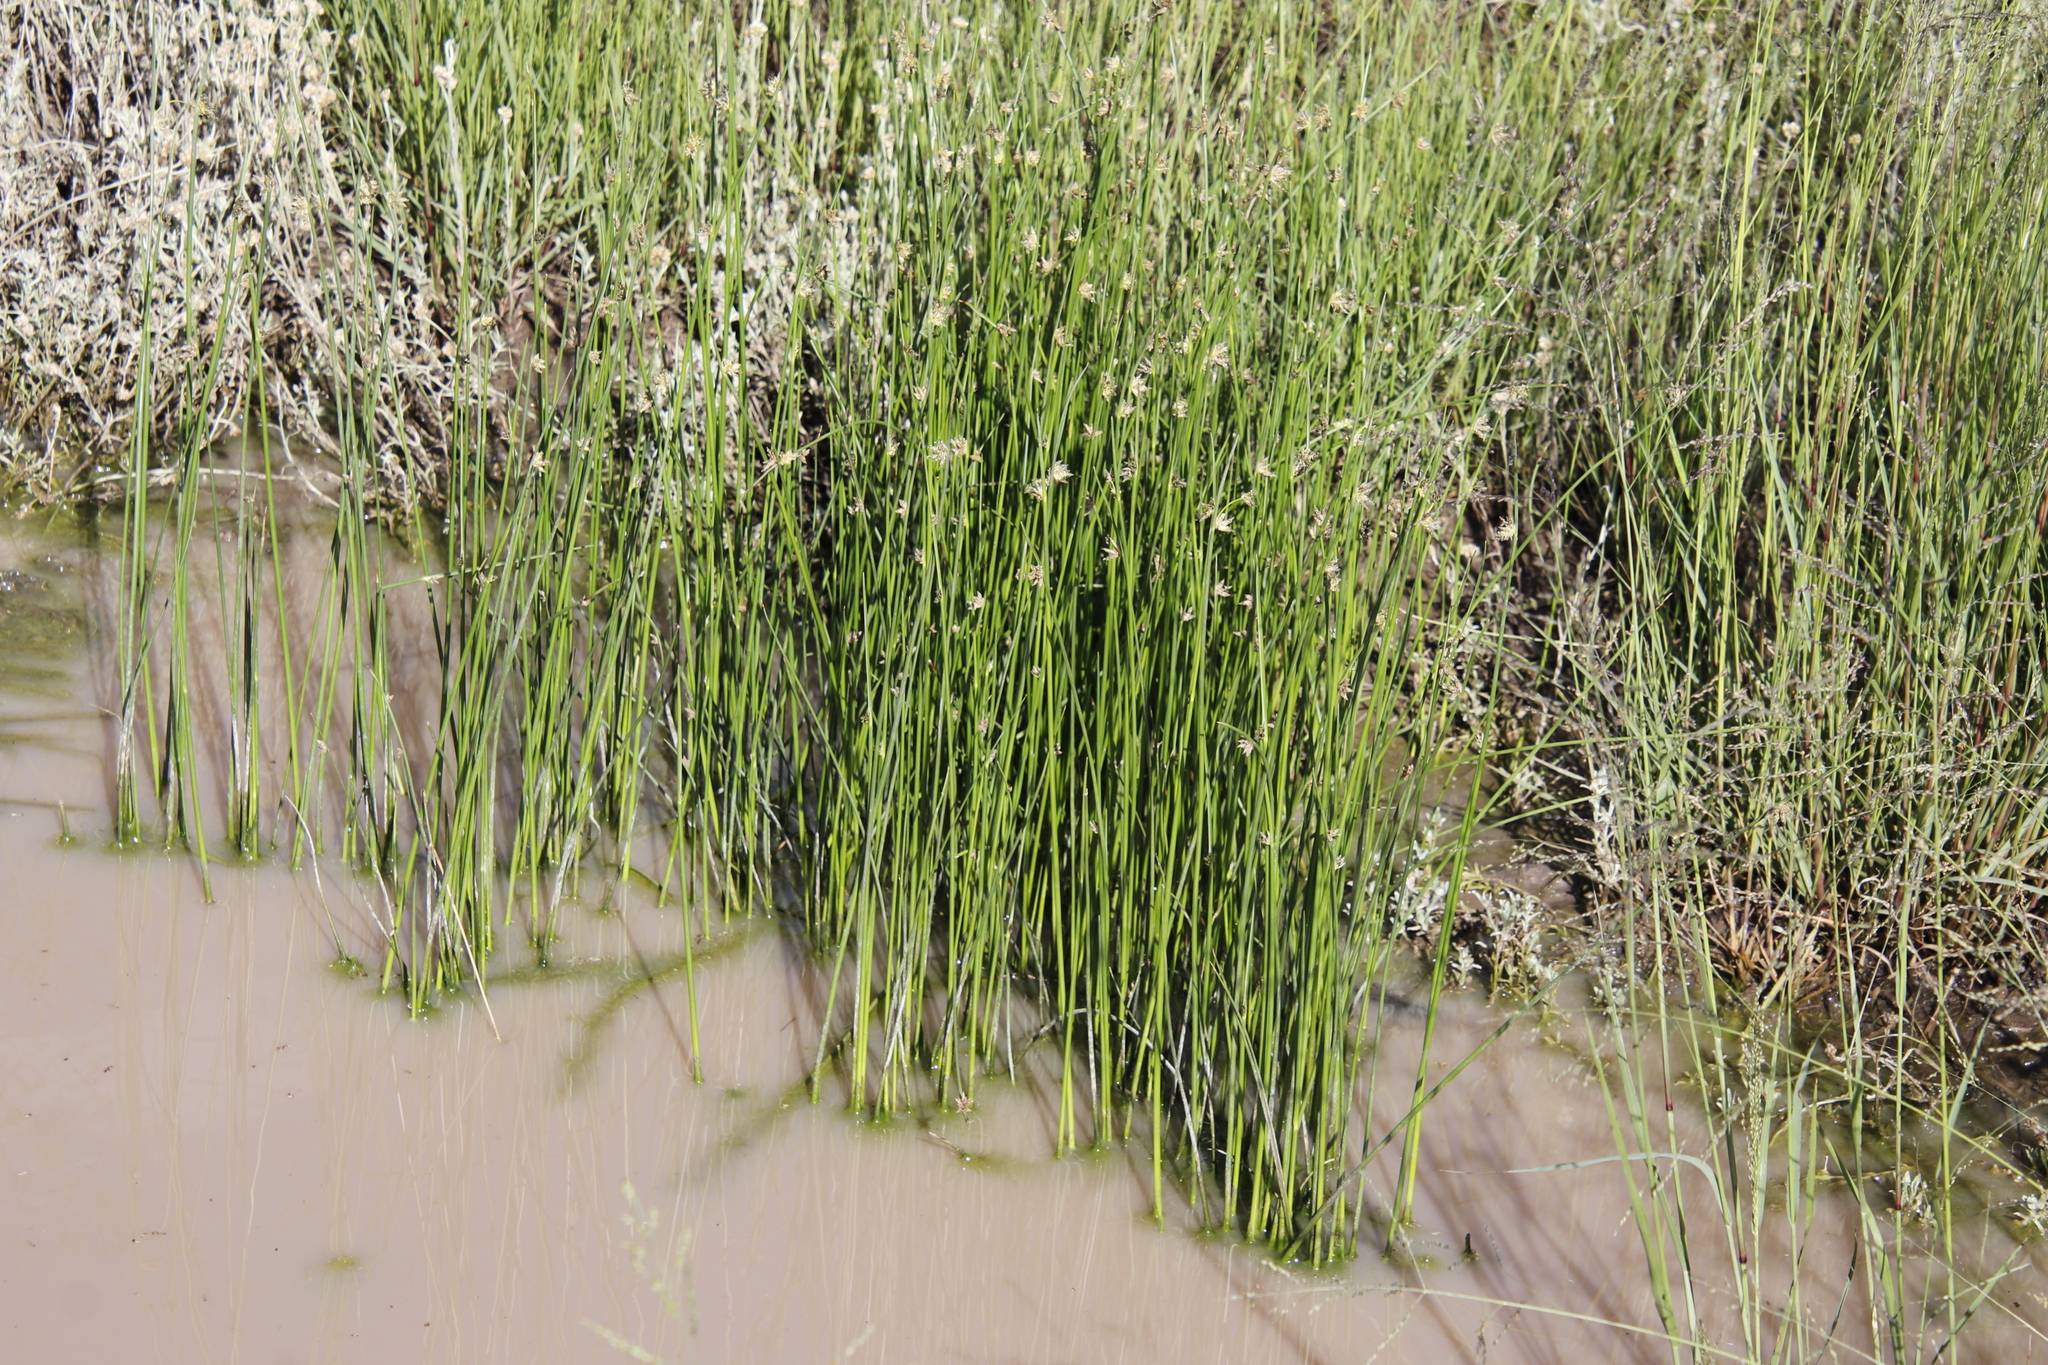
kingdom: Plantae
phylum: Tracheophyta
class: Liliopsida
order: Poales
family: Cyperaceae
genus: Schoenoplectiella
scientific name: Schoenoplectiella decipiens
